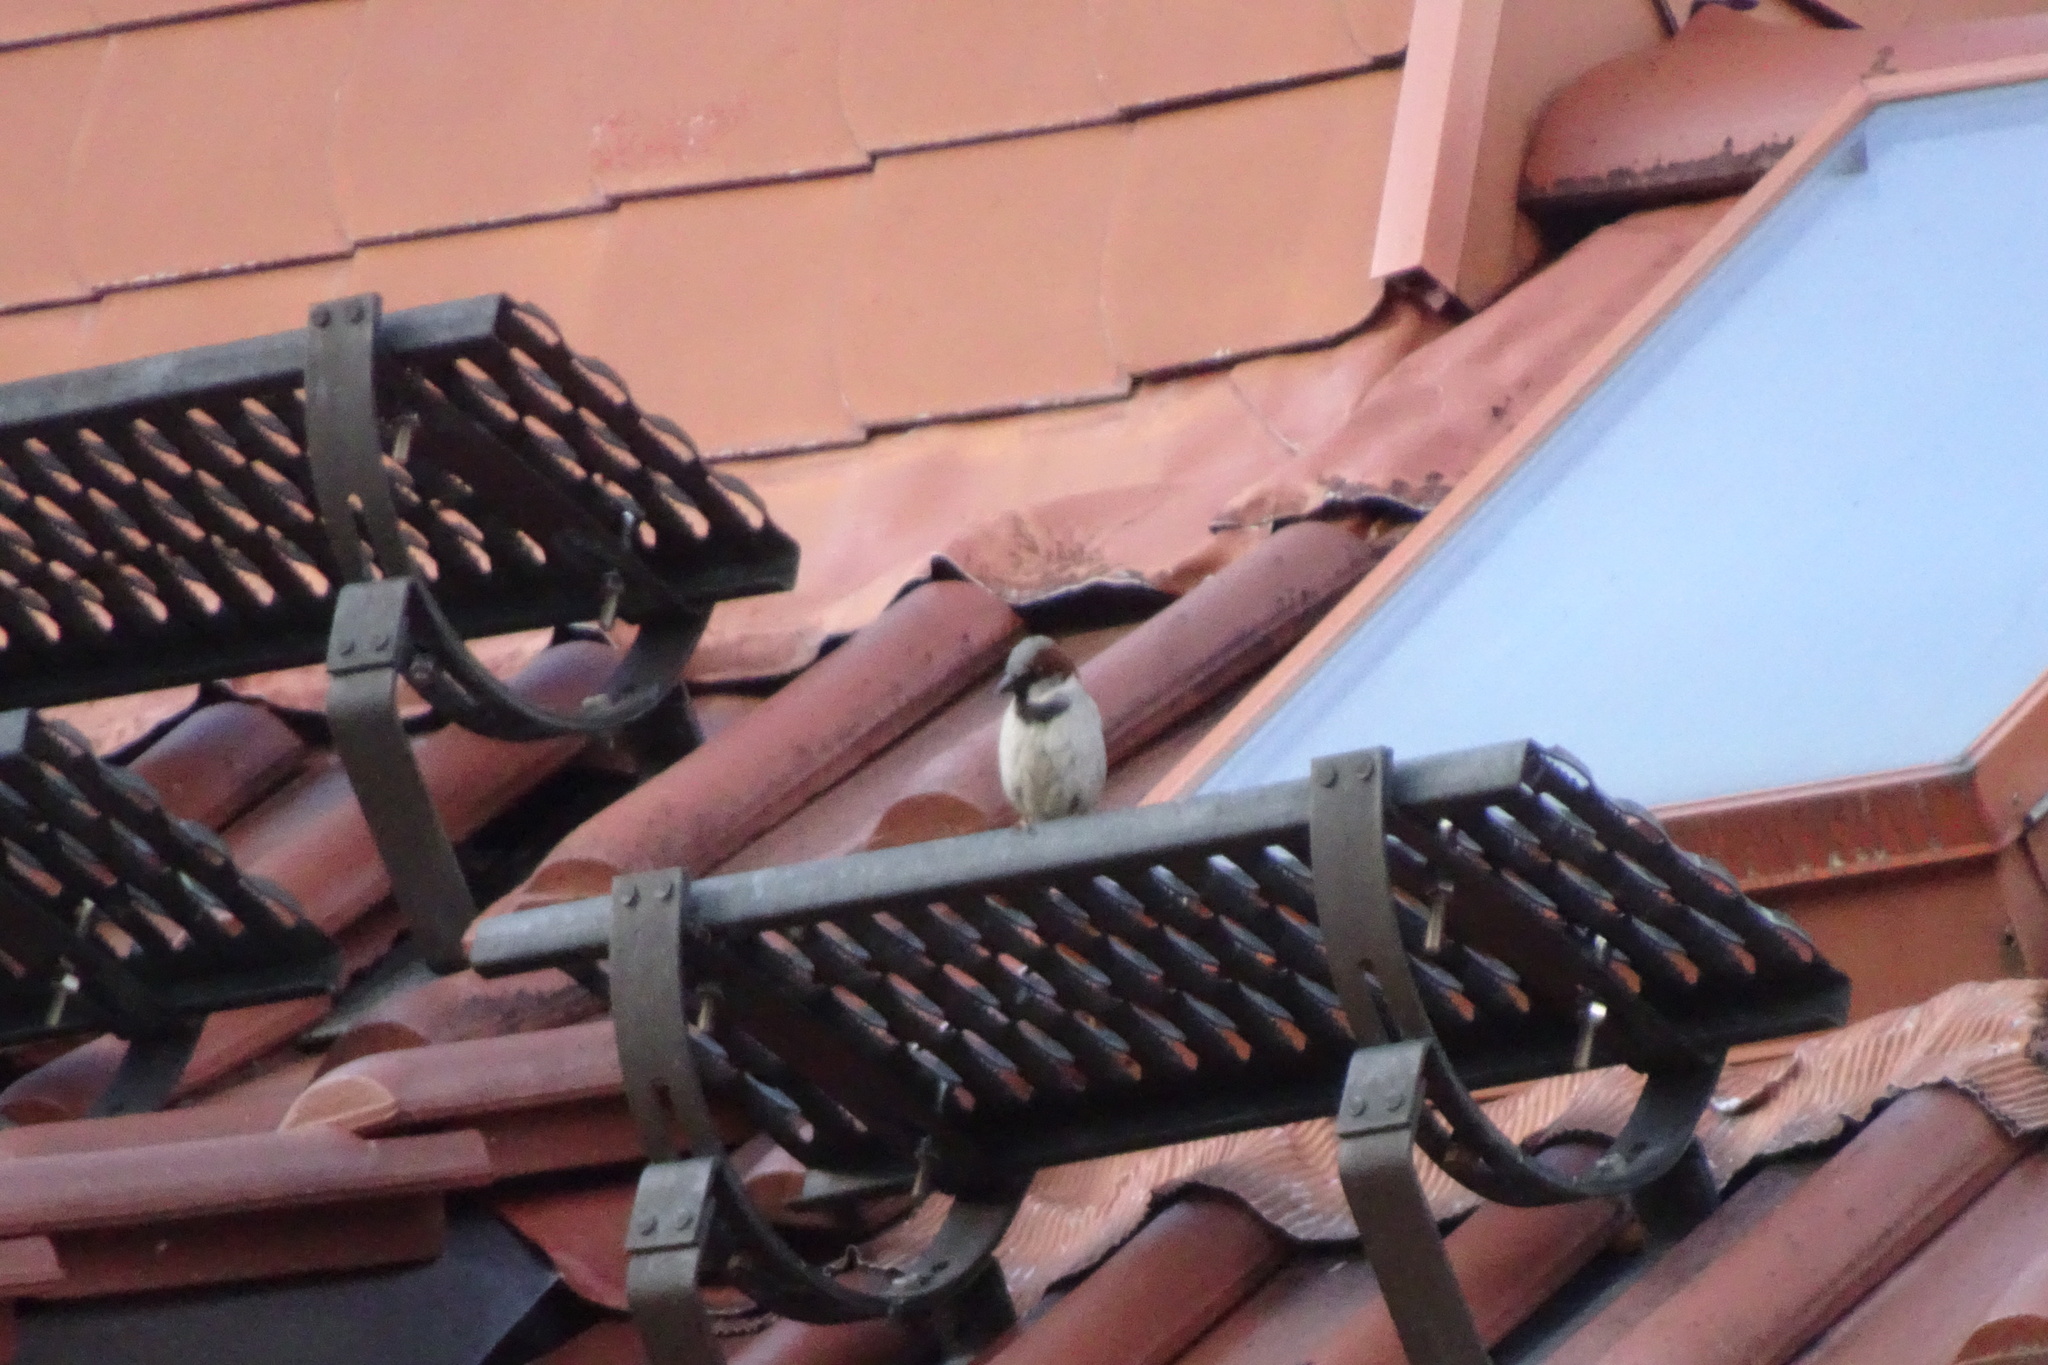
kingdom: Animalia
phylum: Chordata
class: Aves
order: Passeriformes
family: Passeridae
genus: Passer
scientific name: Passer domesticus
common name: House sparrow
